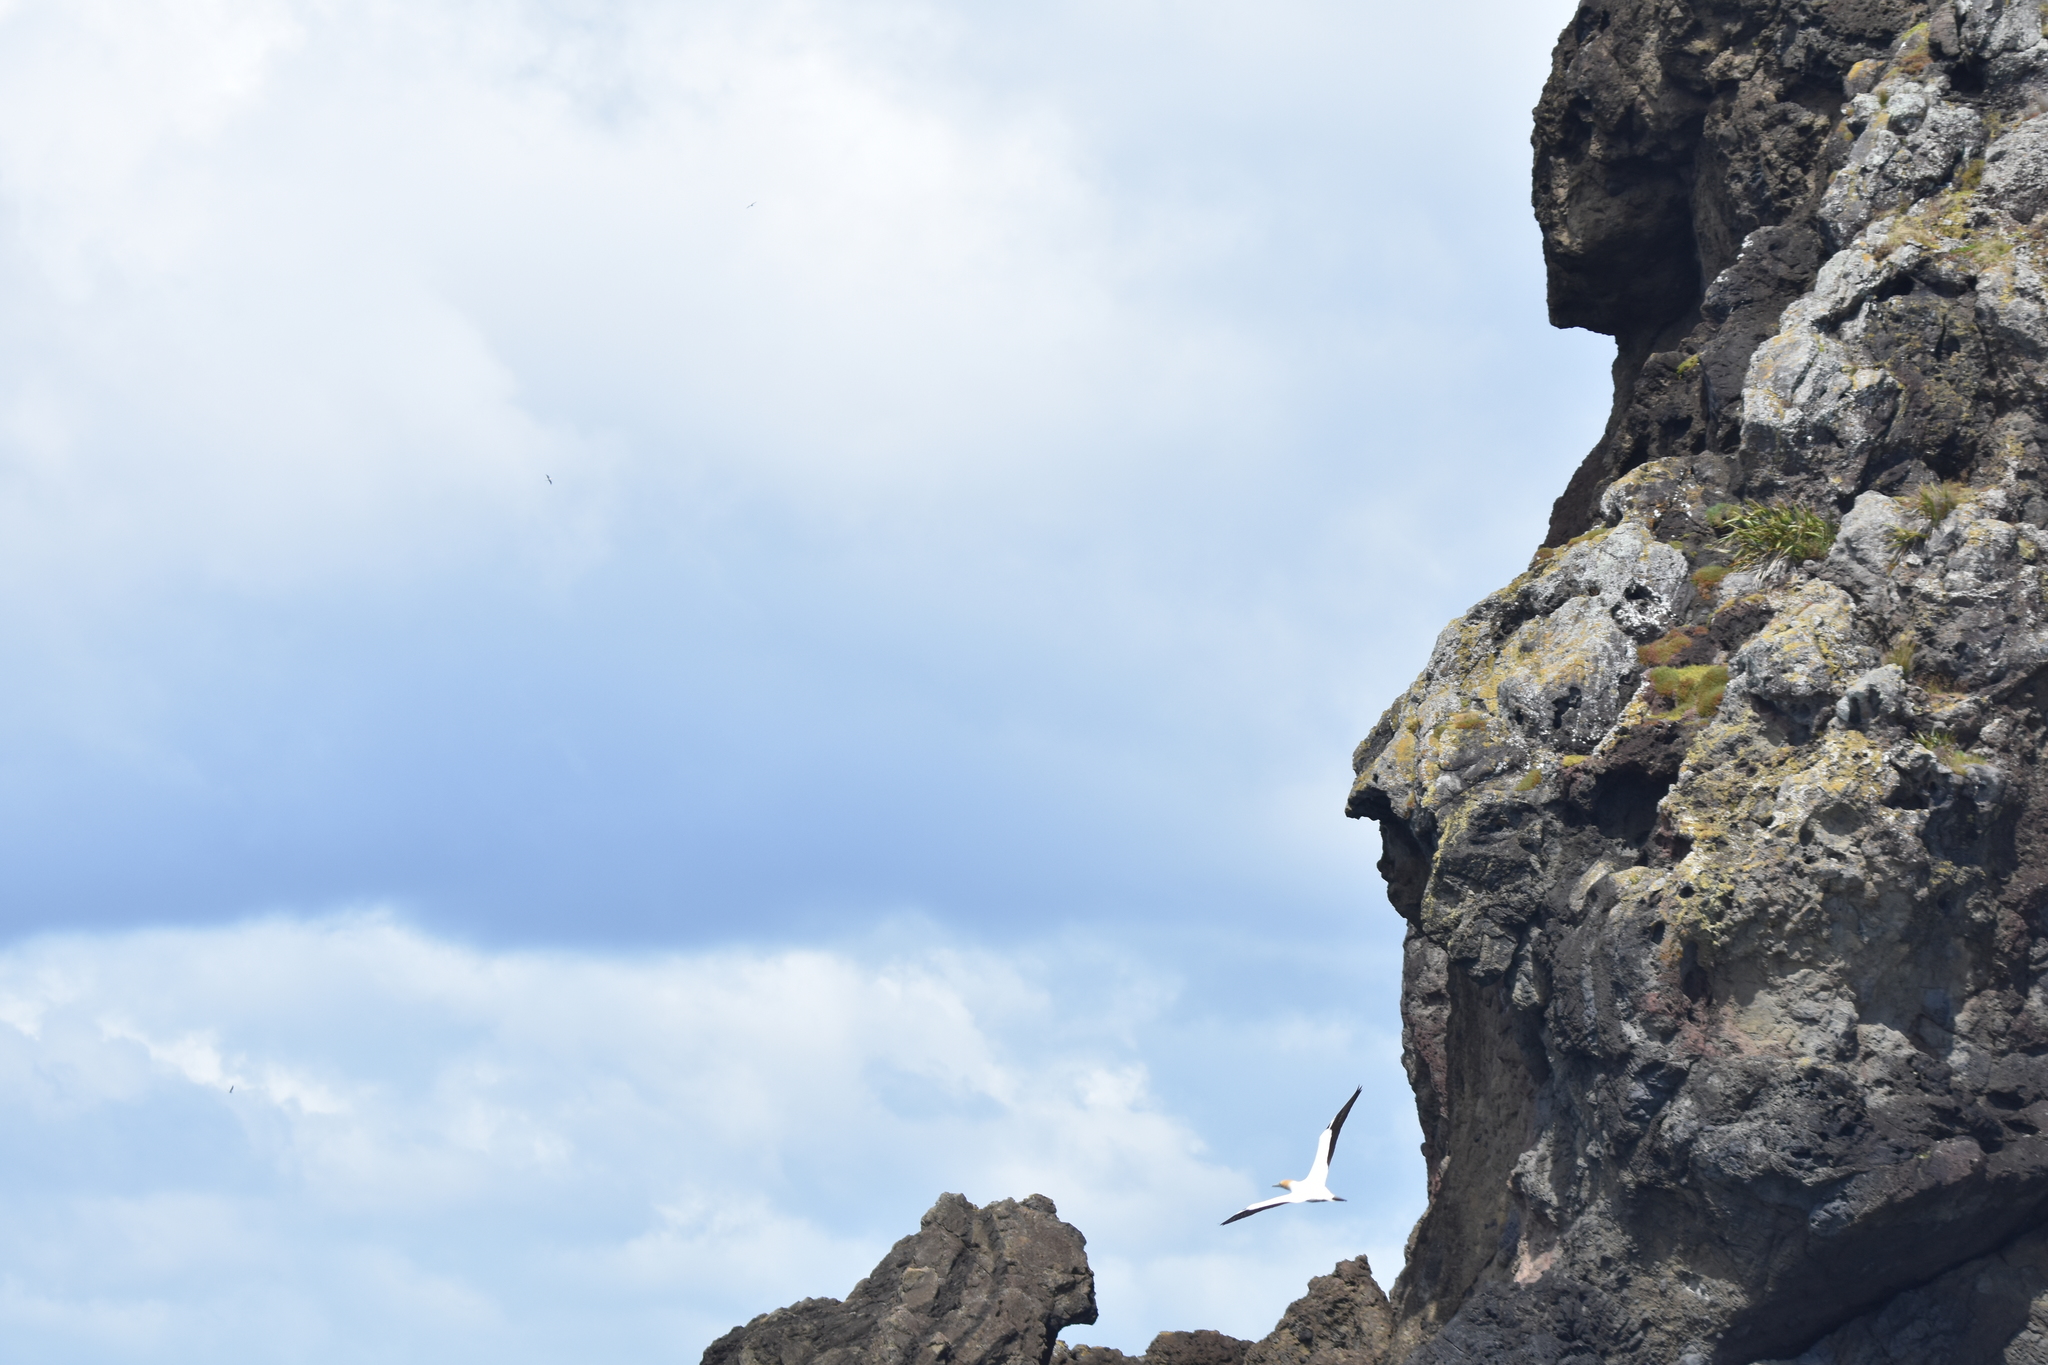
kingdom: Animalia
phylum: Chordata
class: Aves
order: Suliformes
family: Sulidae
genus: Morus
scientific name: Morus serrator
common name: Australasian gannet
